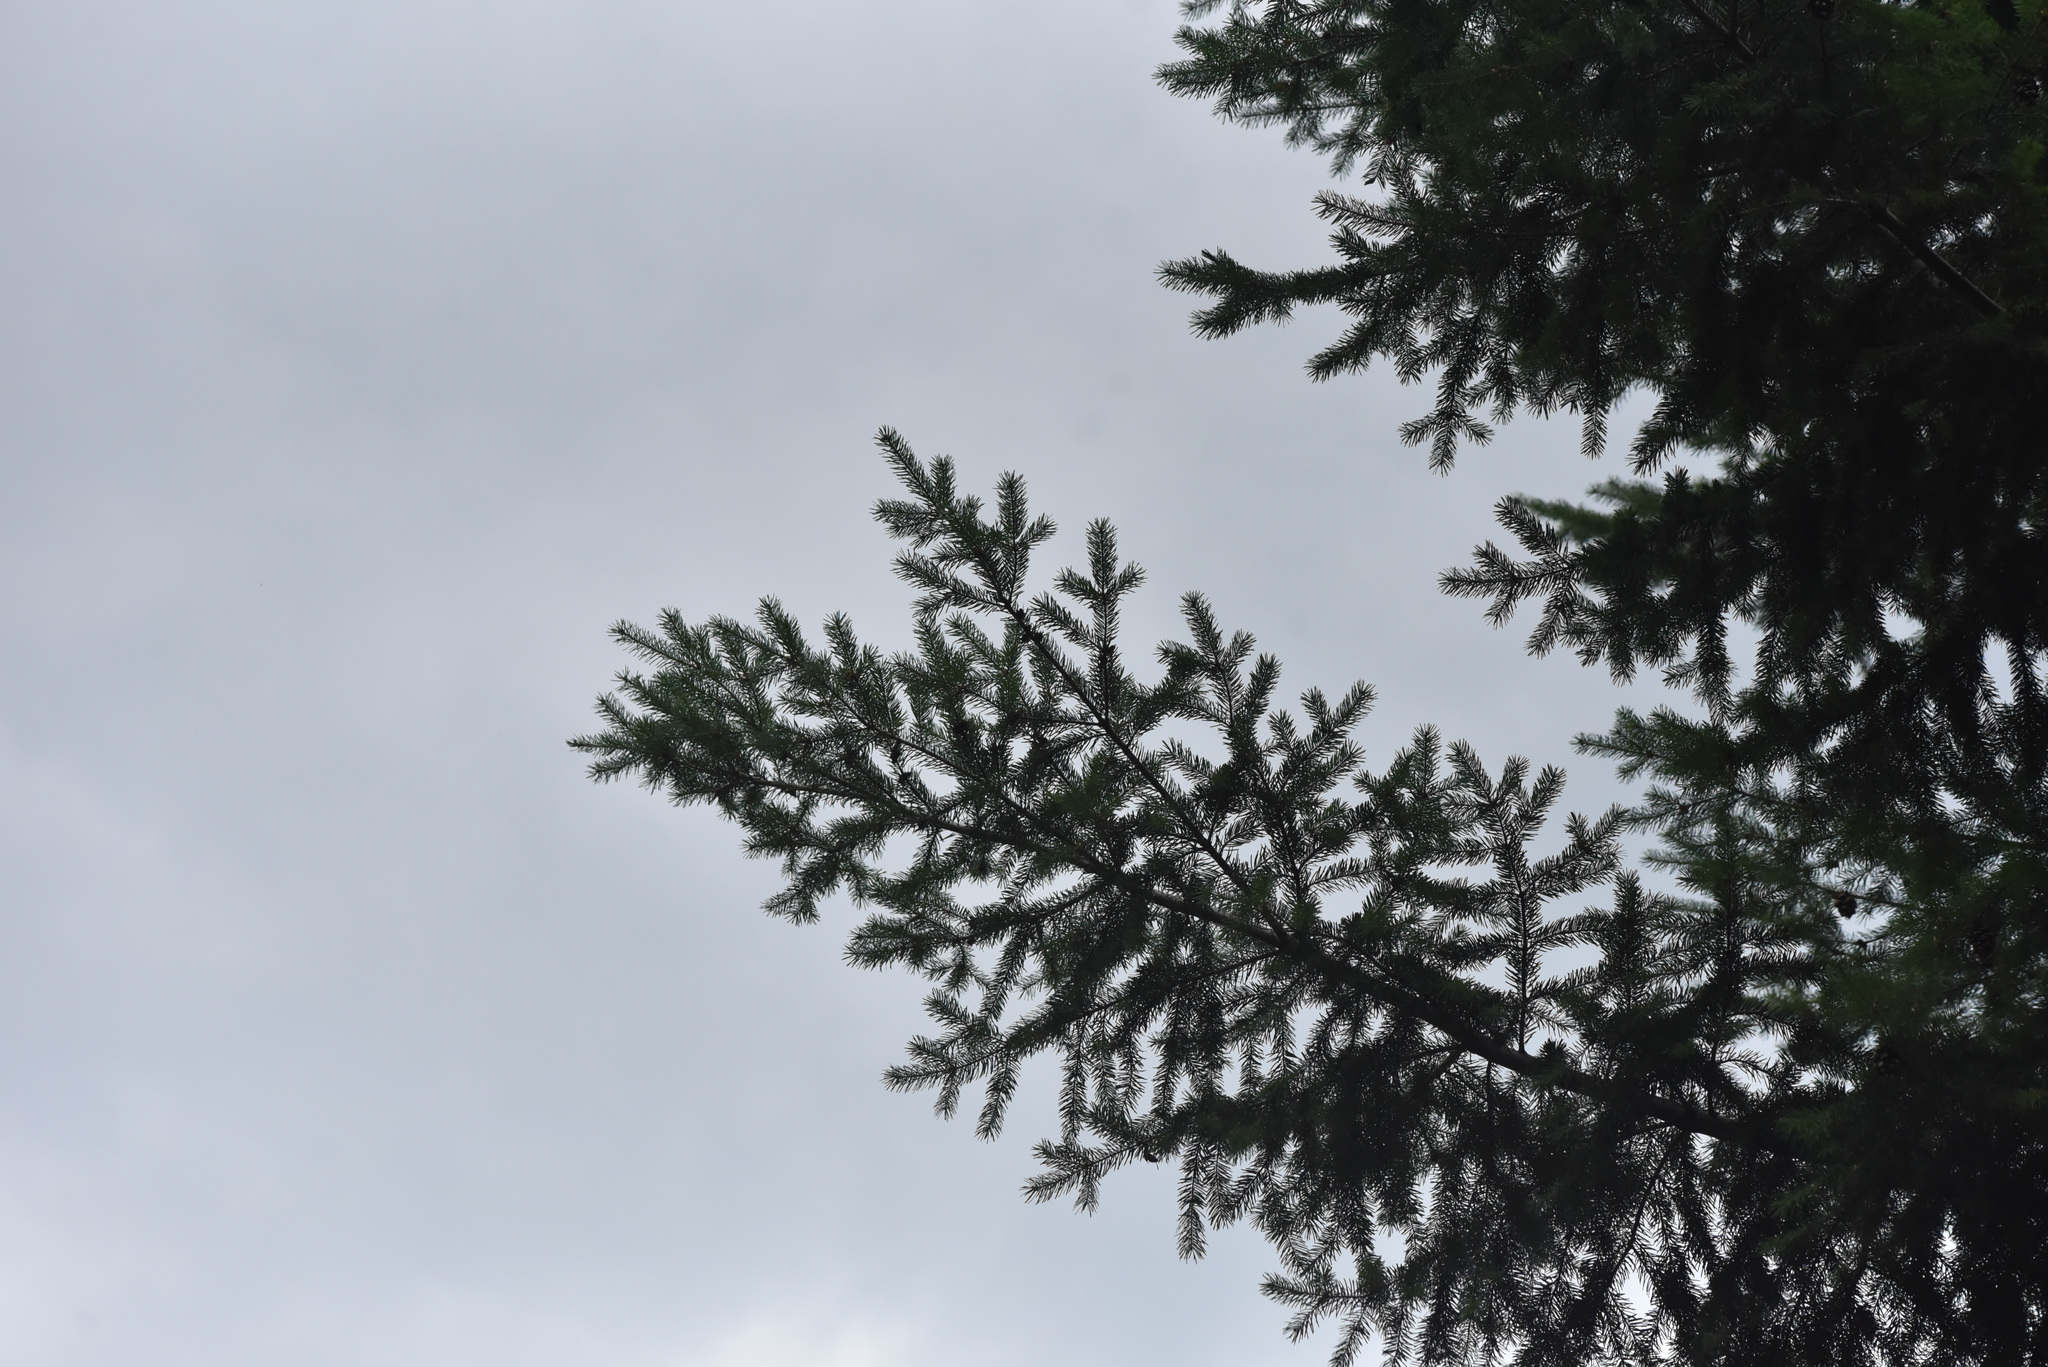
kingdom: Plantae
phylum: Tracheophyta
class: Pinopsida
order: Pinales
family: Pinaceae
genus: Pseudotsuga
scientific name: Pseudotsuga menziesii
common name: Douglas fir
